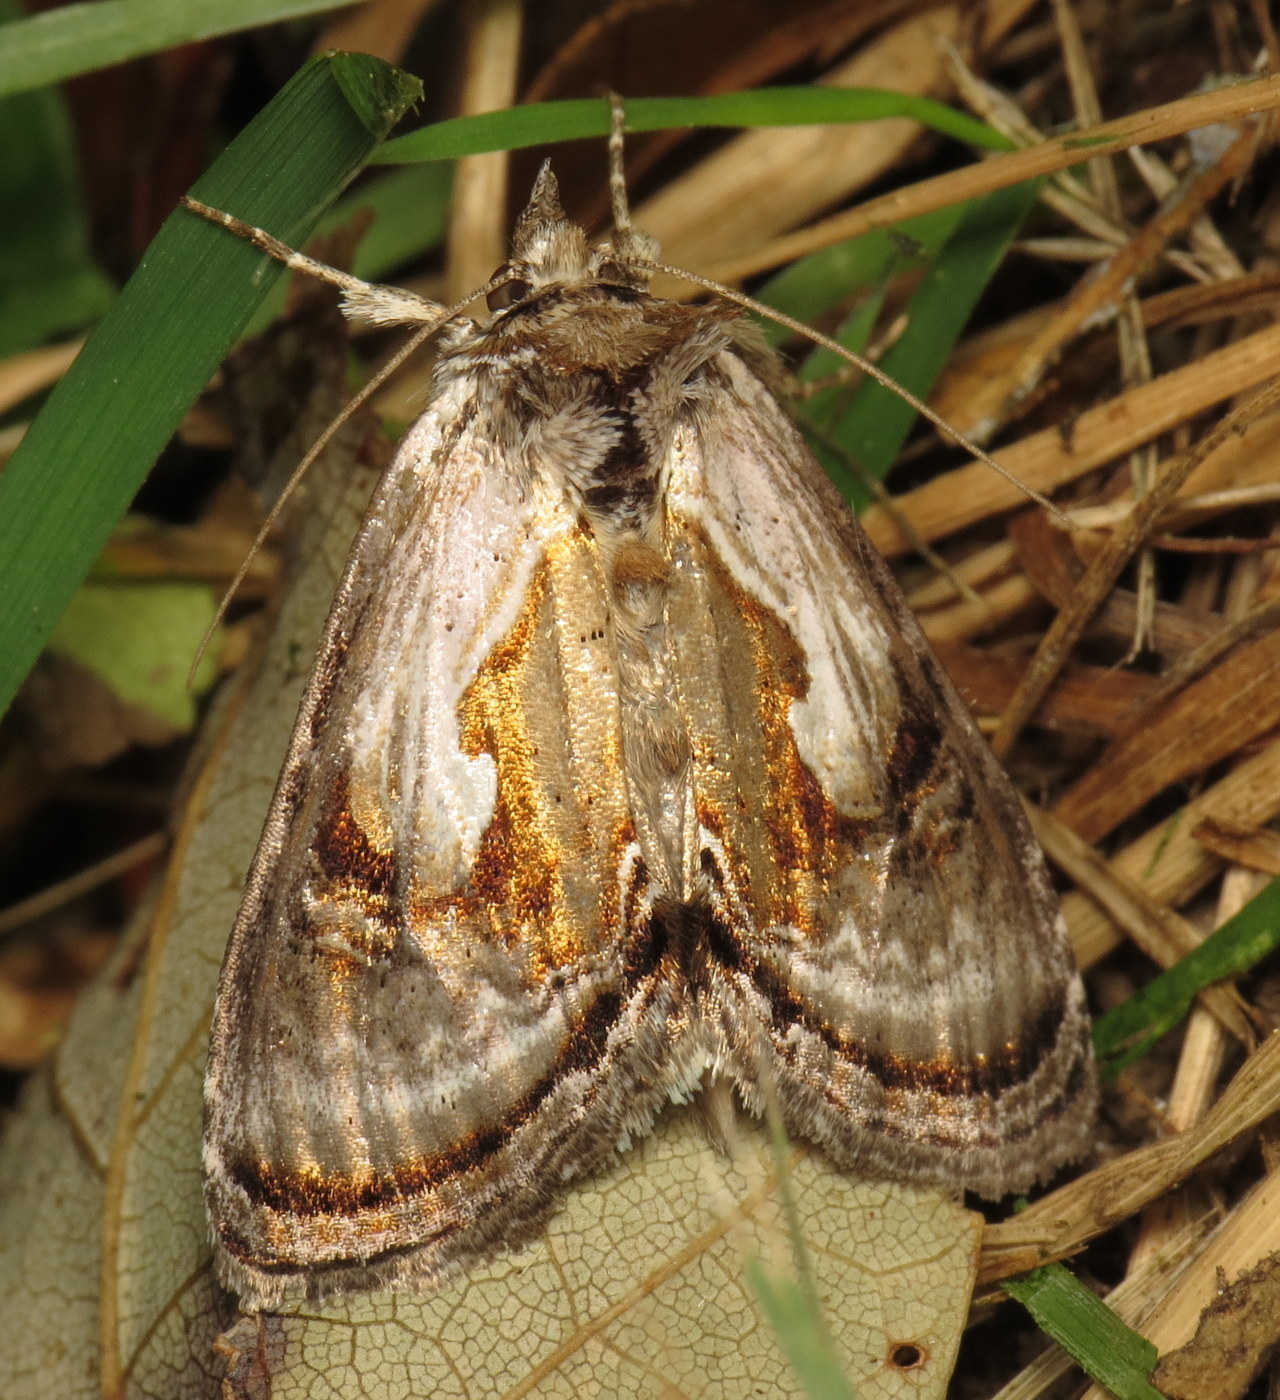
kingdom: Animalia
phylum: Arthropoda
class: Insecta
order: Lepidoptera
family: Noctuidae
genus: Chrysanympha
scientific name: Chrysanympha formosa
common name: Formosa looper moth
